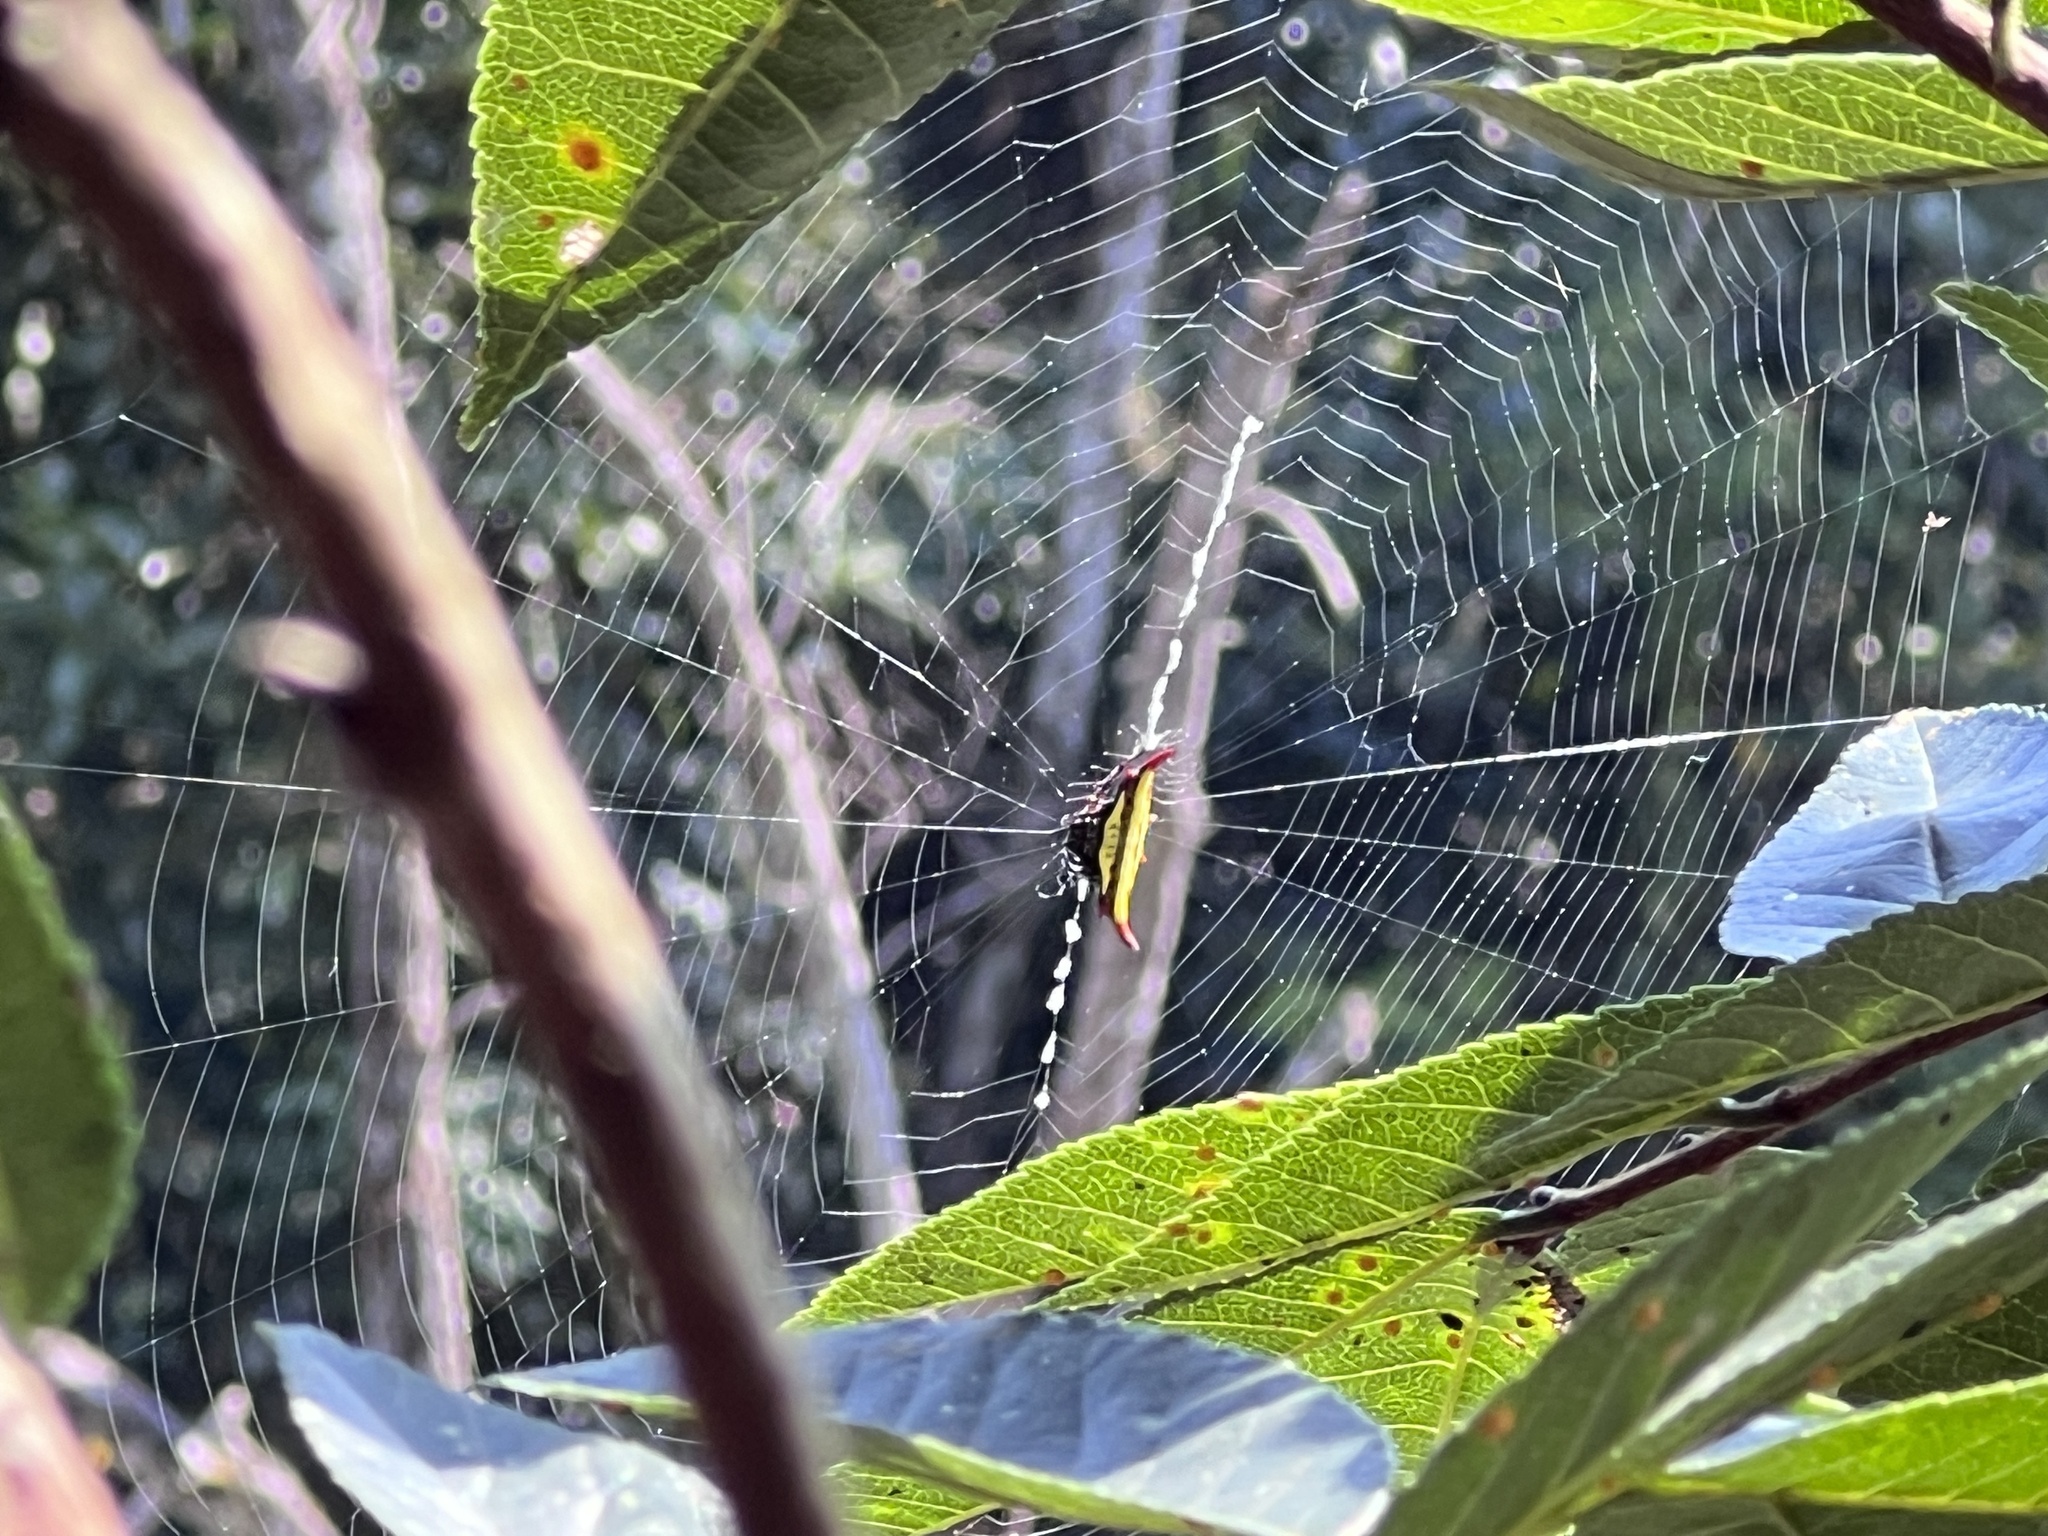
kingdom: Animalia
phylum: Arthropoda
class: Arachnida
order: Araneae
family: Araneidae
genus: Gasteracantha
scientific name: Gasteracantha diadesmia
